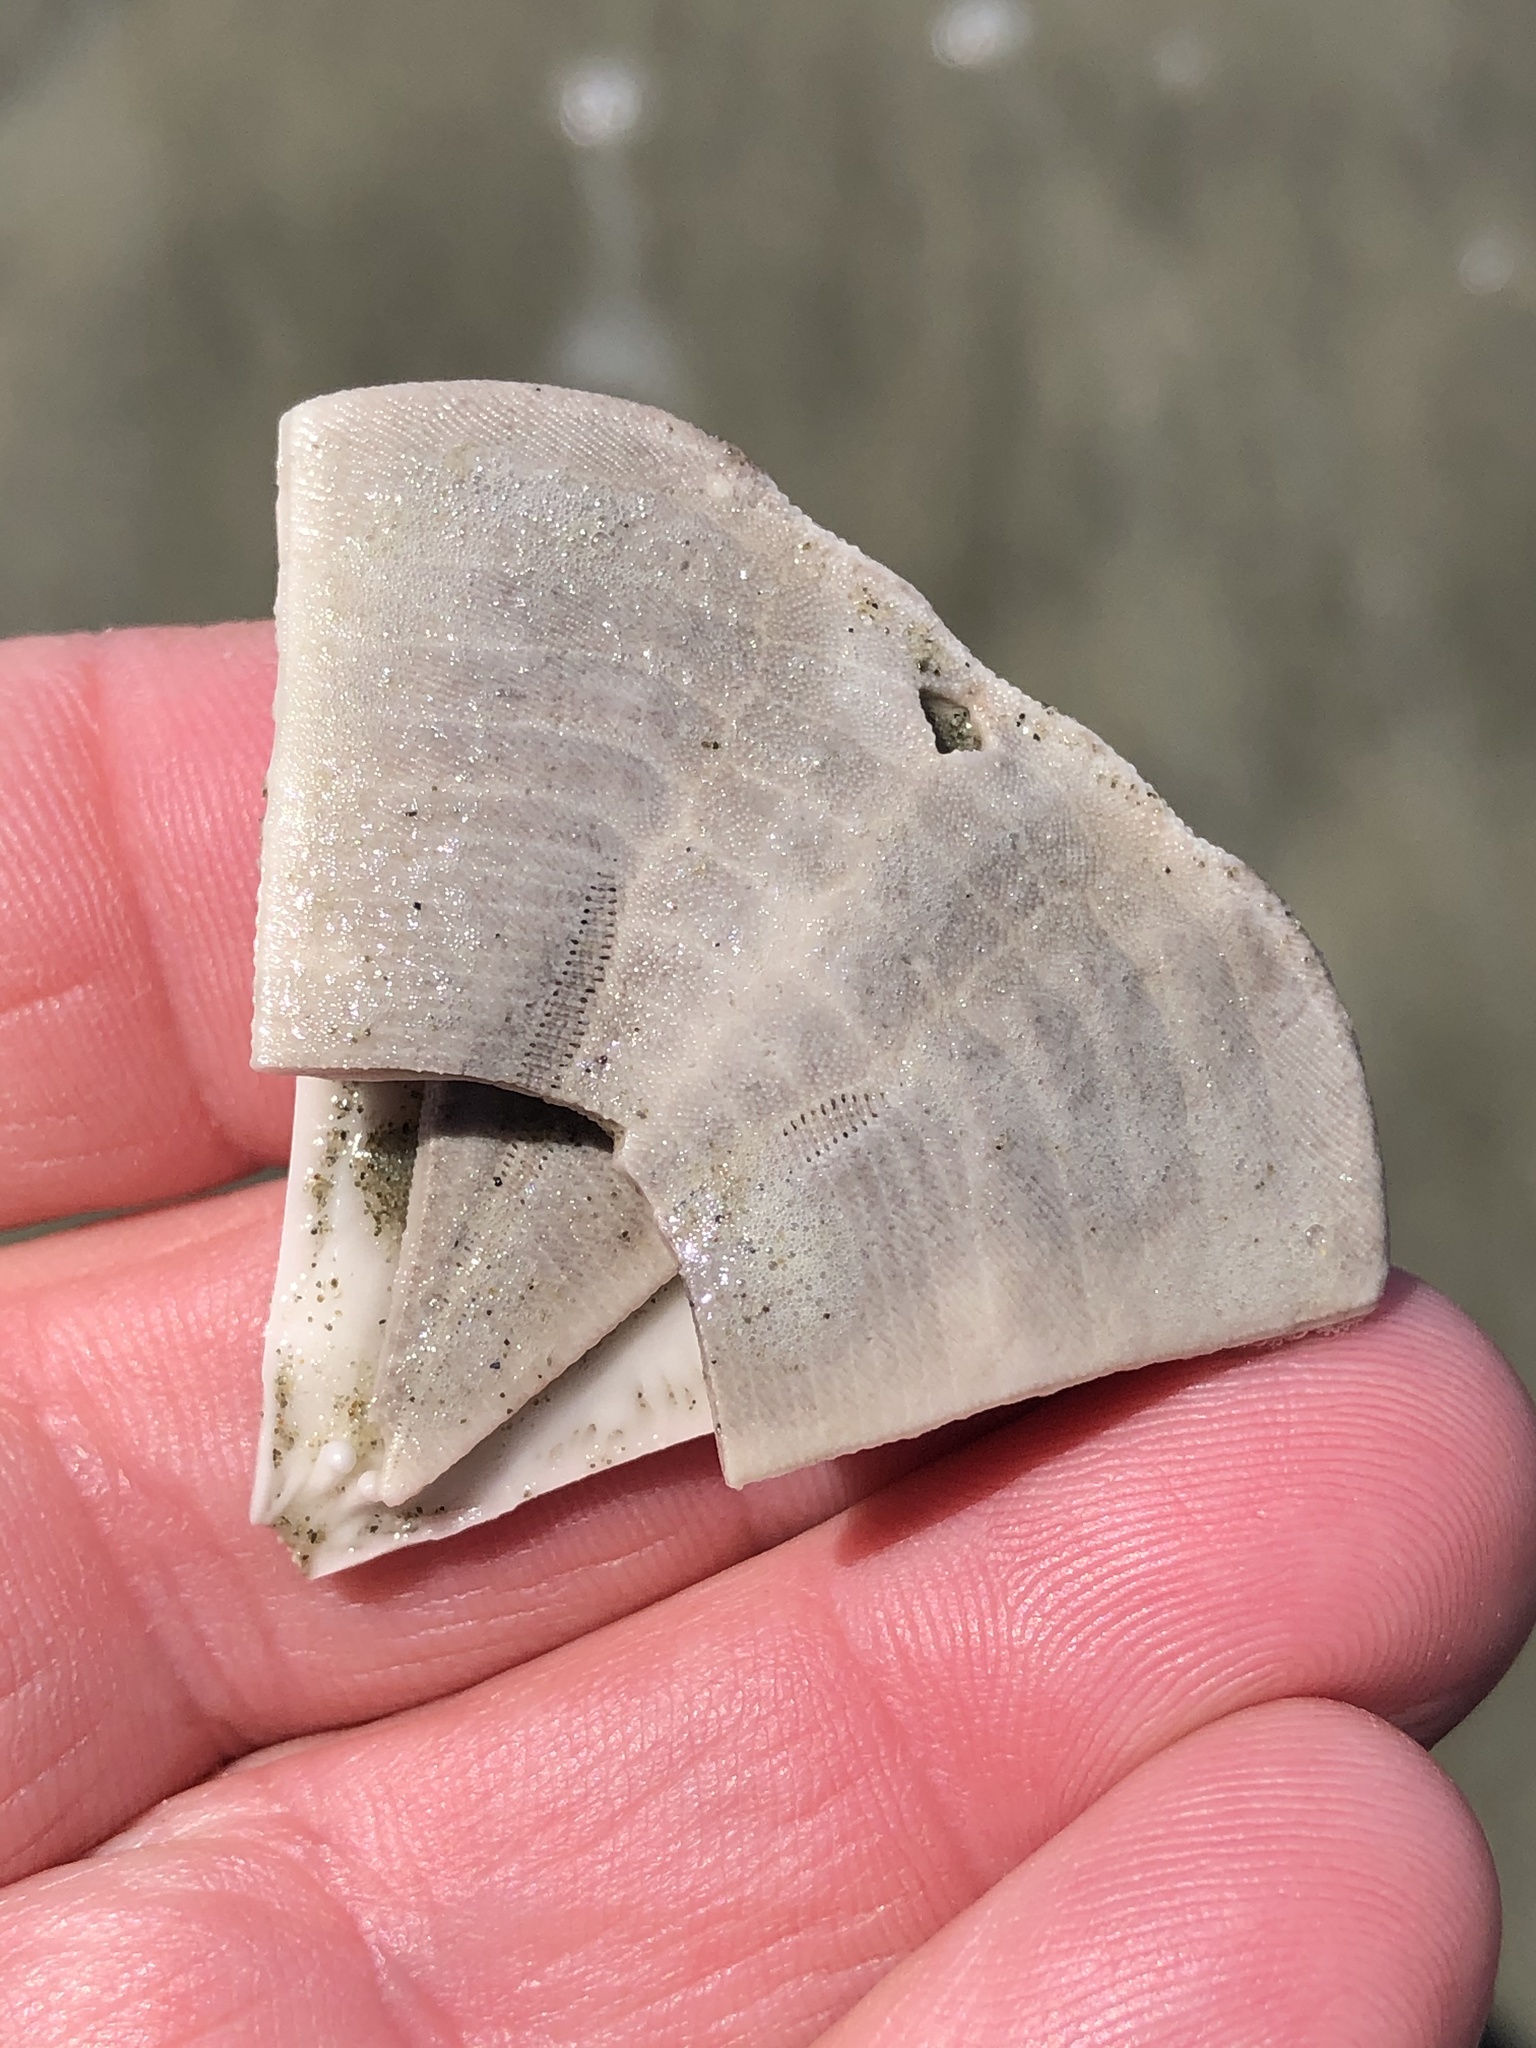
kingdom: Animalia
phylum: Echinodermata
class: Echinoidea
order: Clypeasteroida
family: Clypeasteridae
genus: Fellaster
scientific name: Fellaster zelandiae
